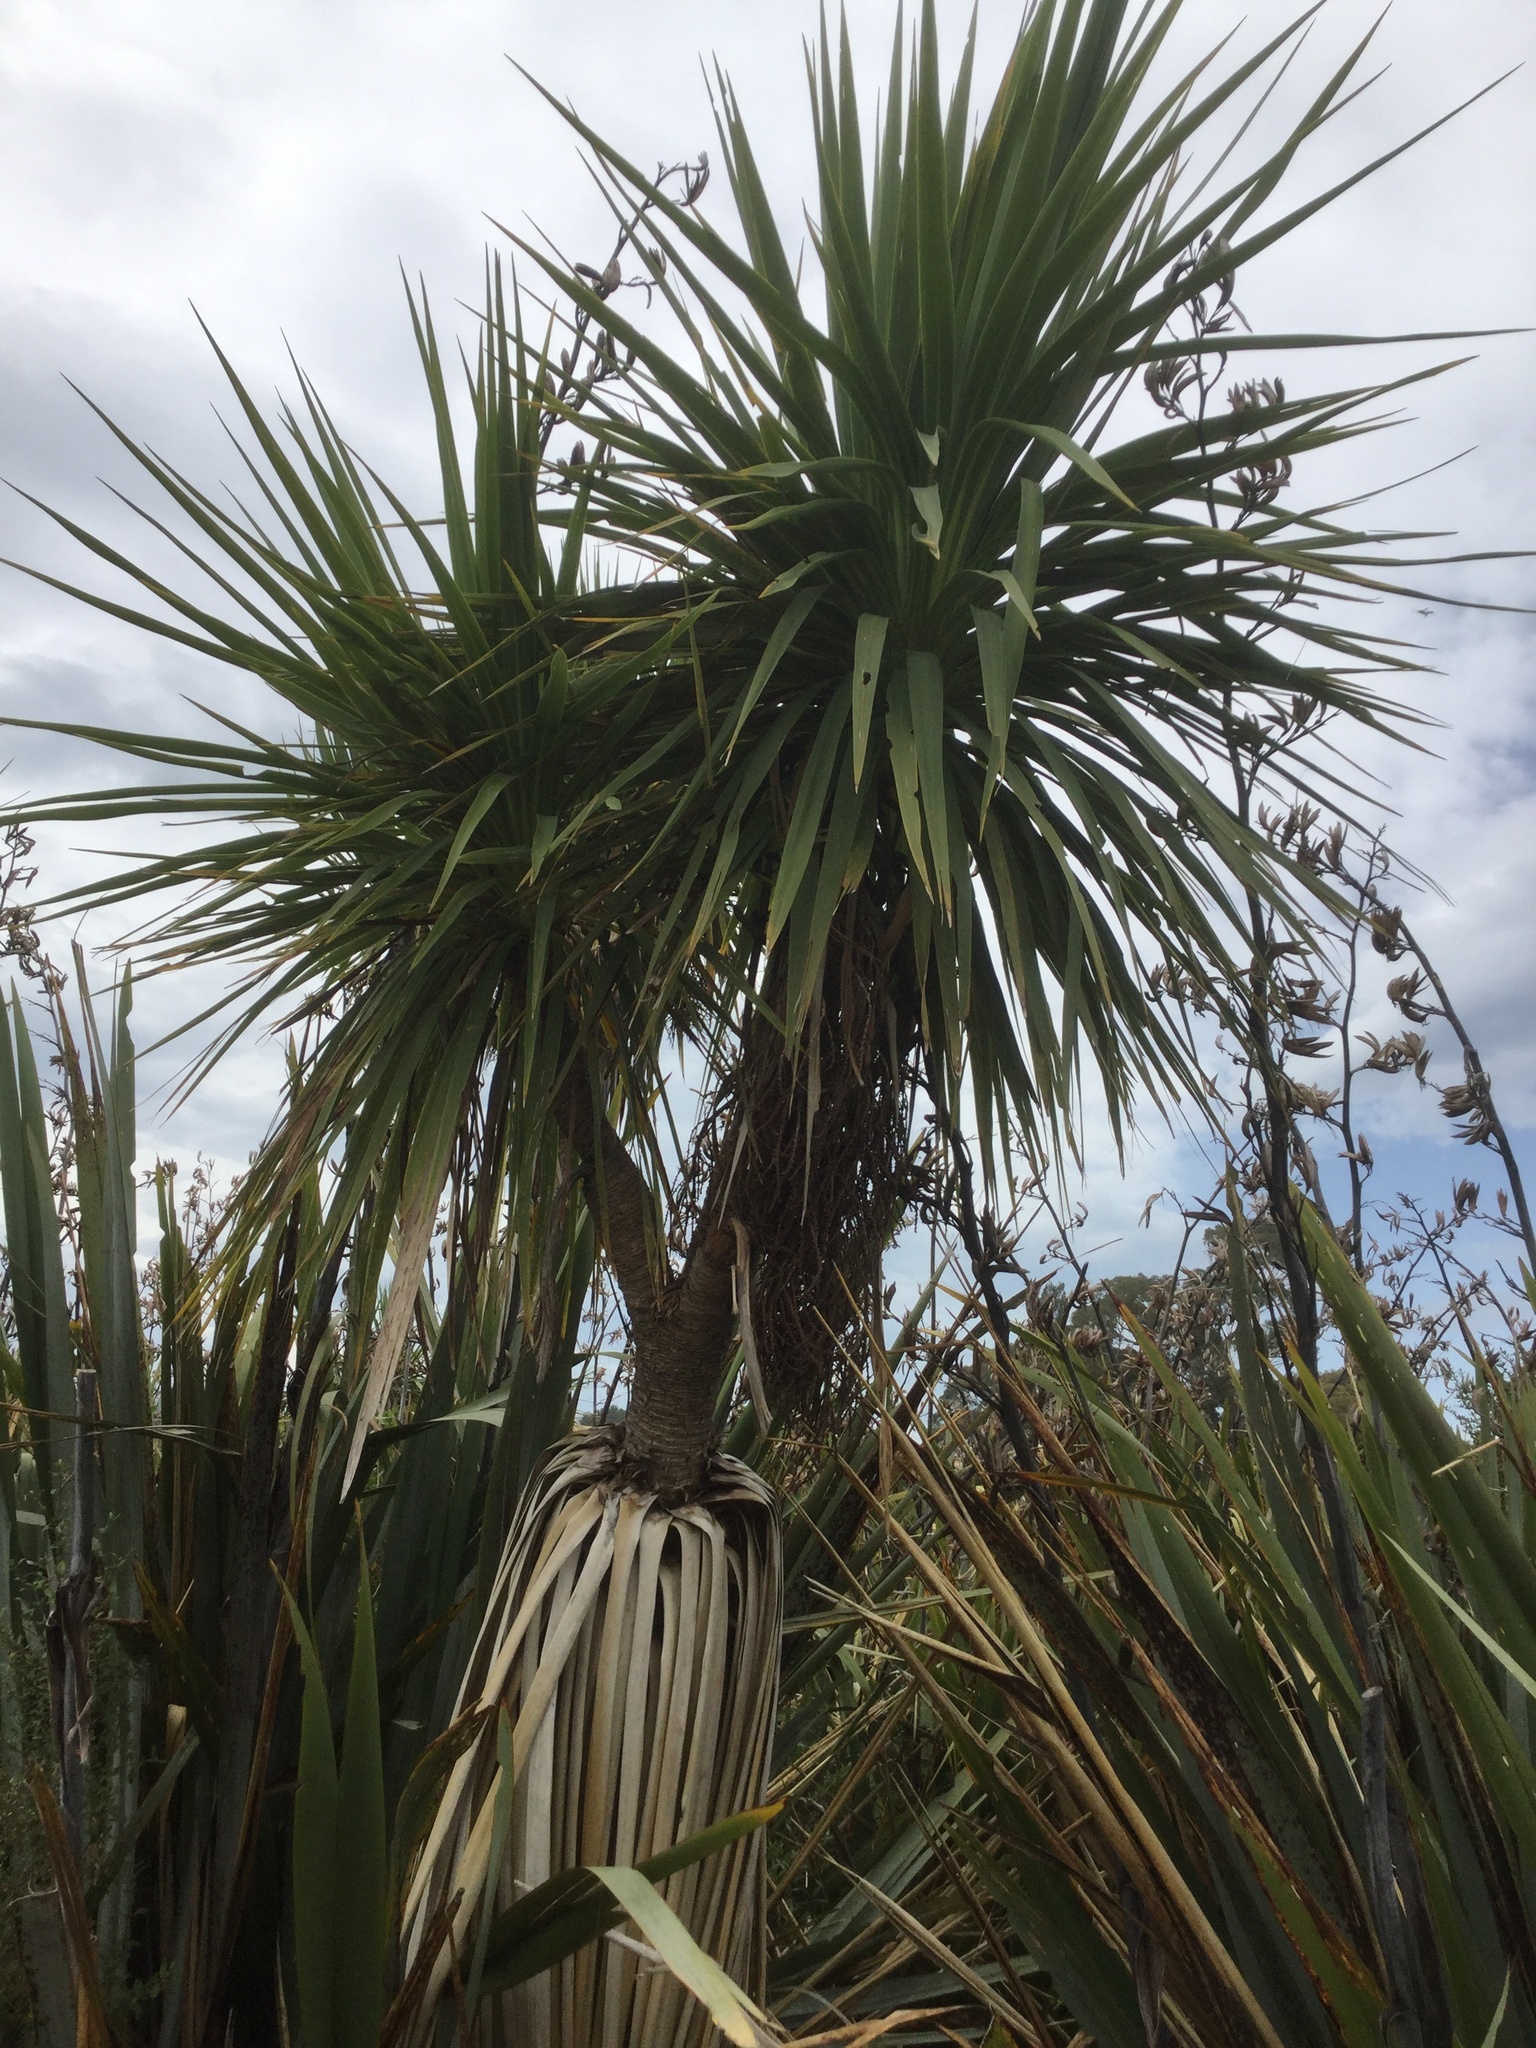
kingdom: Plantae
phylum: Tracheophyta
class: Liliopsida
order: Asparagales
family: Asparagaceae
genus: Cordyline
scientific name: Cordyline australis
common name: Cabbage-palm
